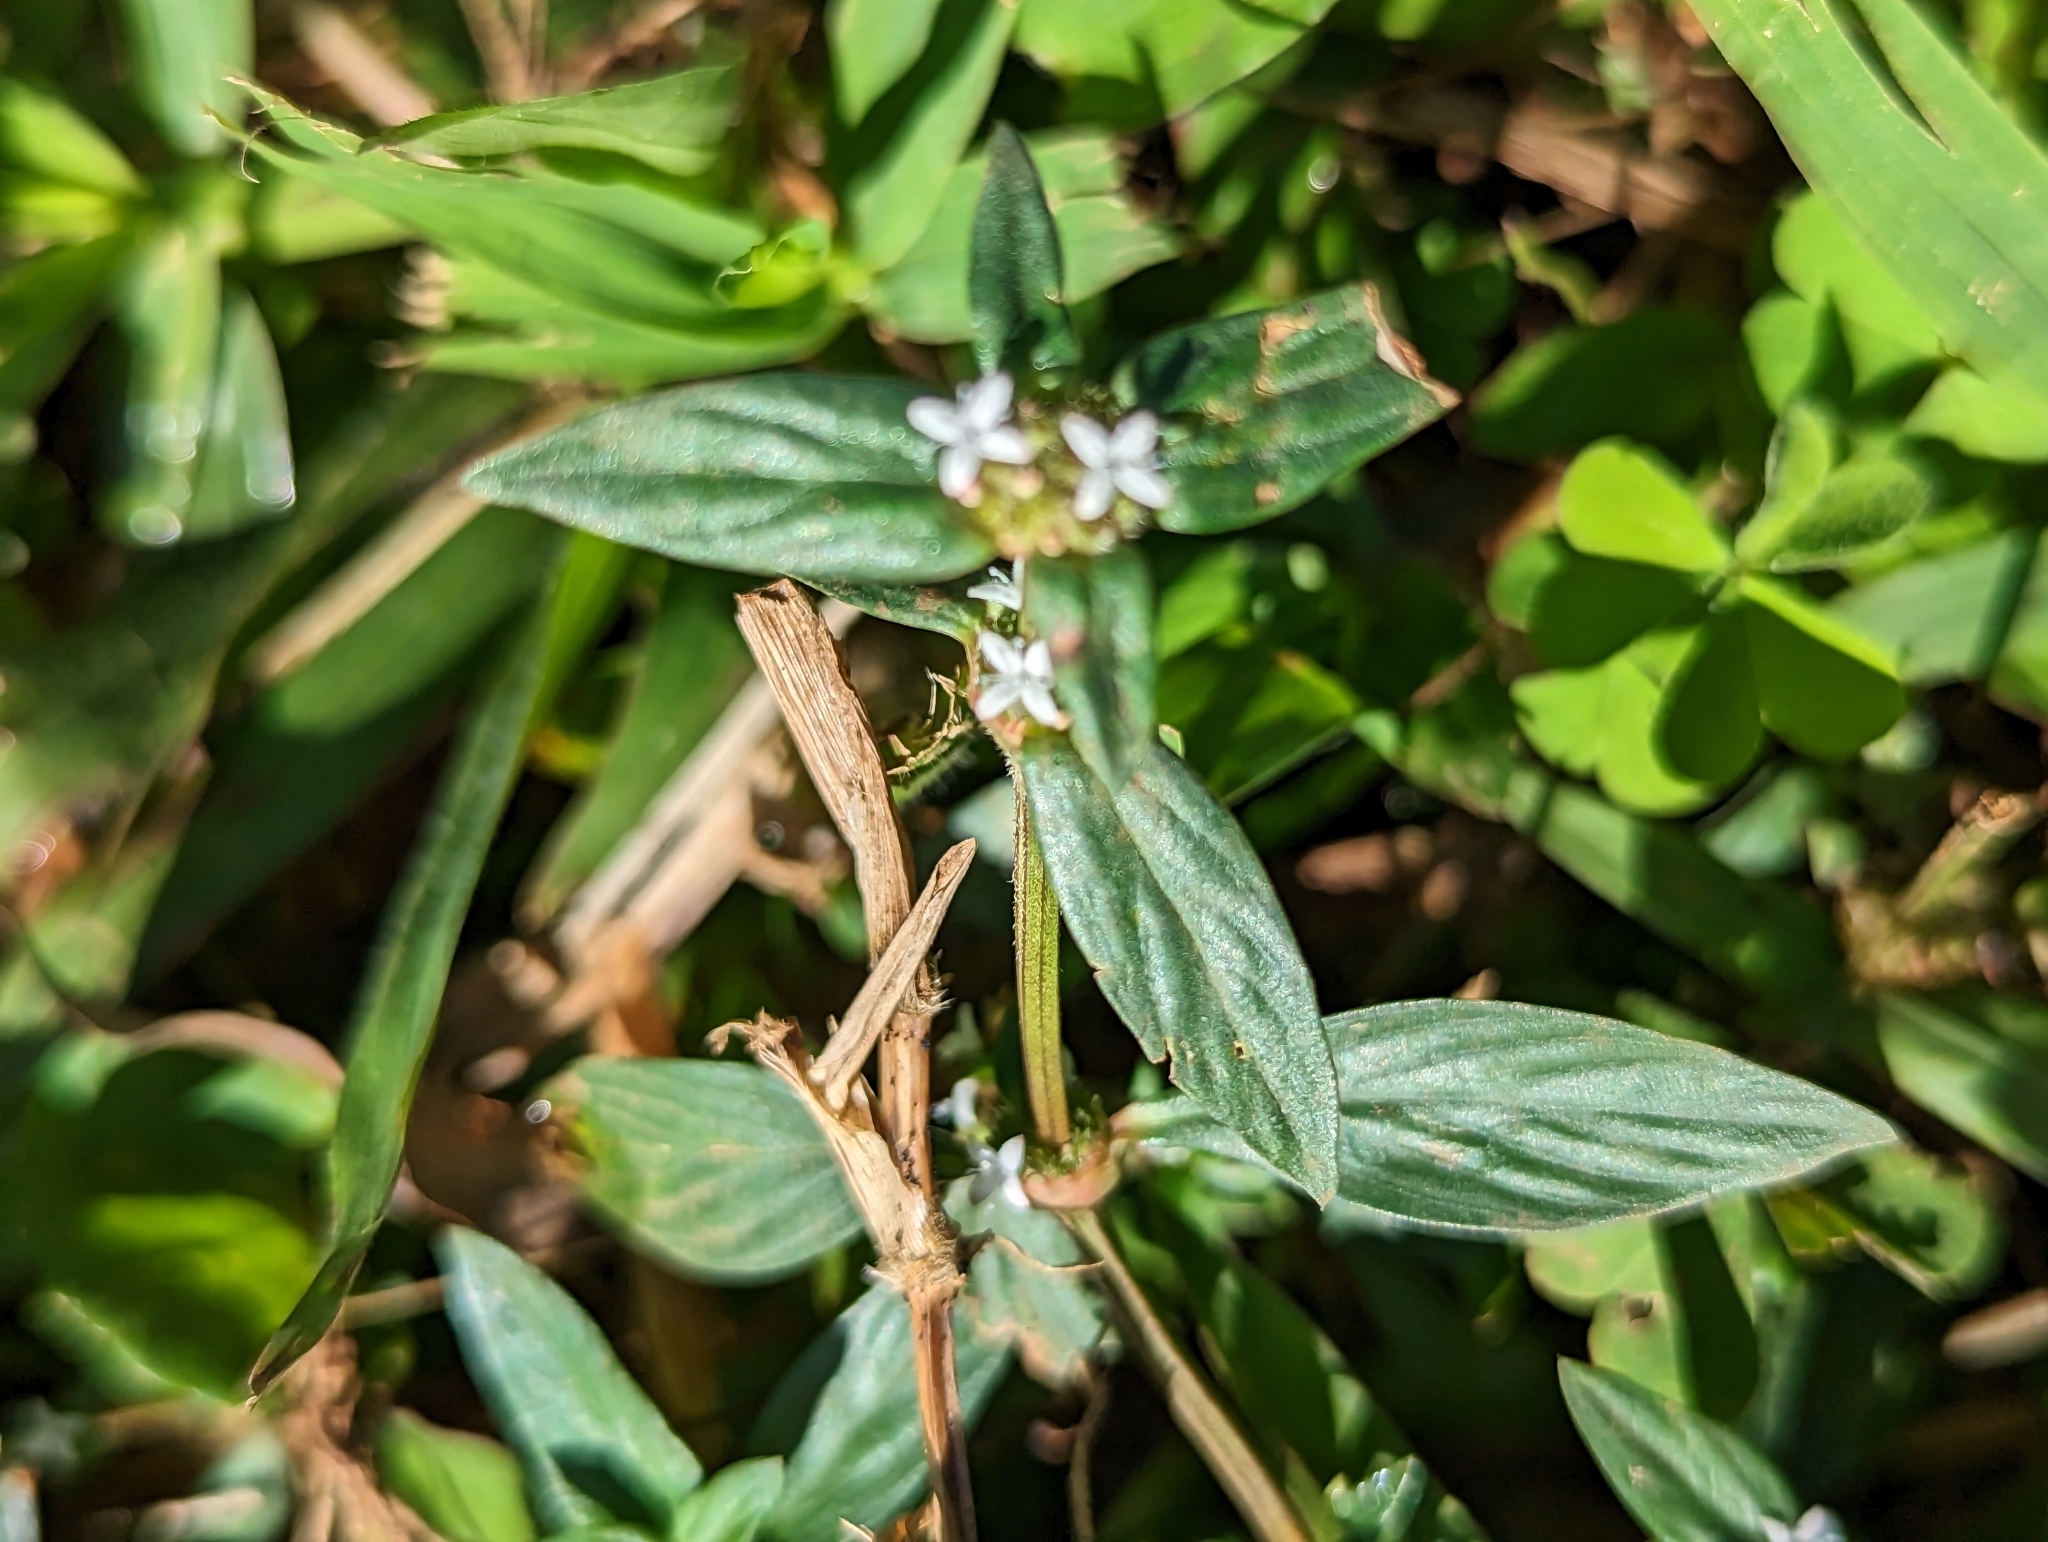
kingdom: Plantae
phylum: Tracheophyta
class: Magnoliopsida
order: Gentianales
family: Rubiaceae
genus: Spermacoce
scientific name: Spermacoce remota
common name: Woodland false buttonweed
